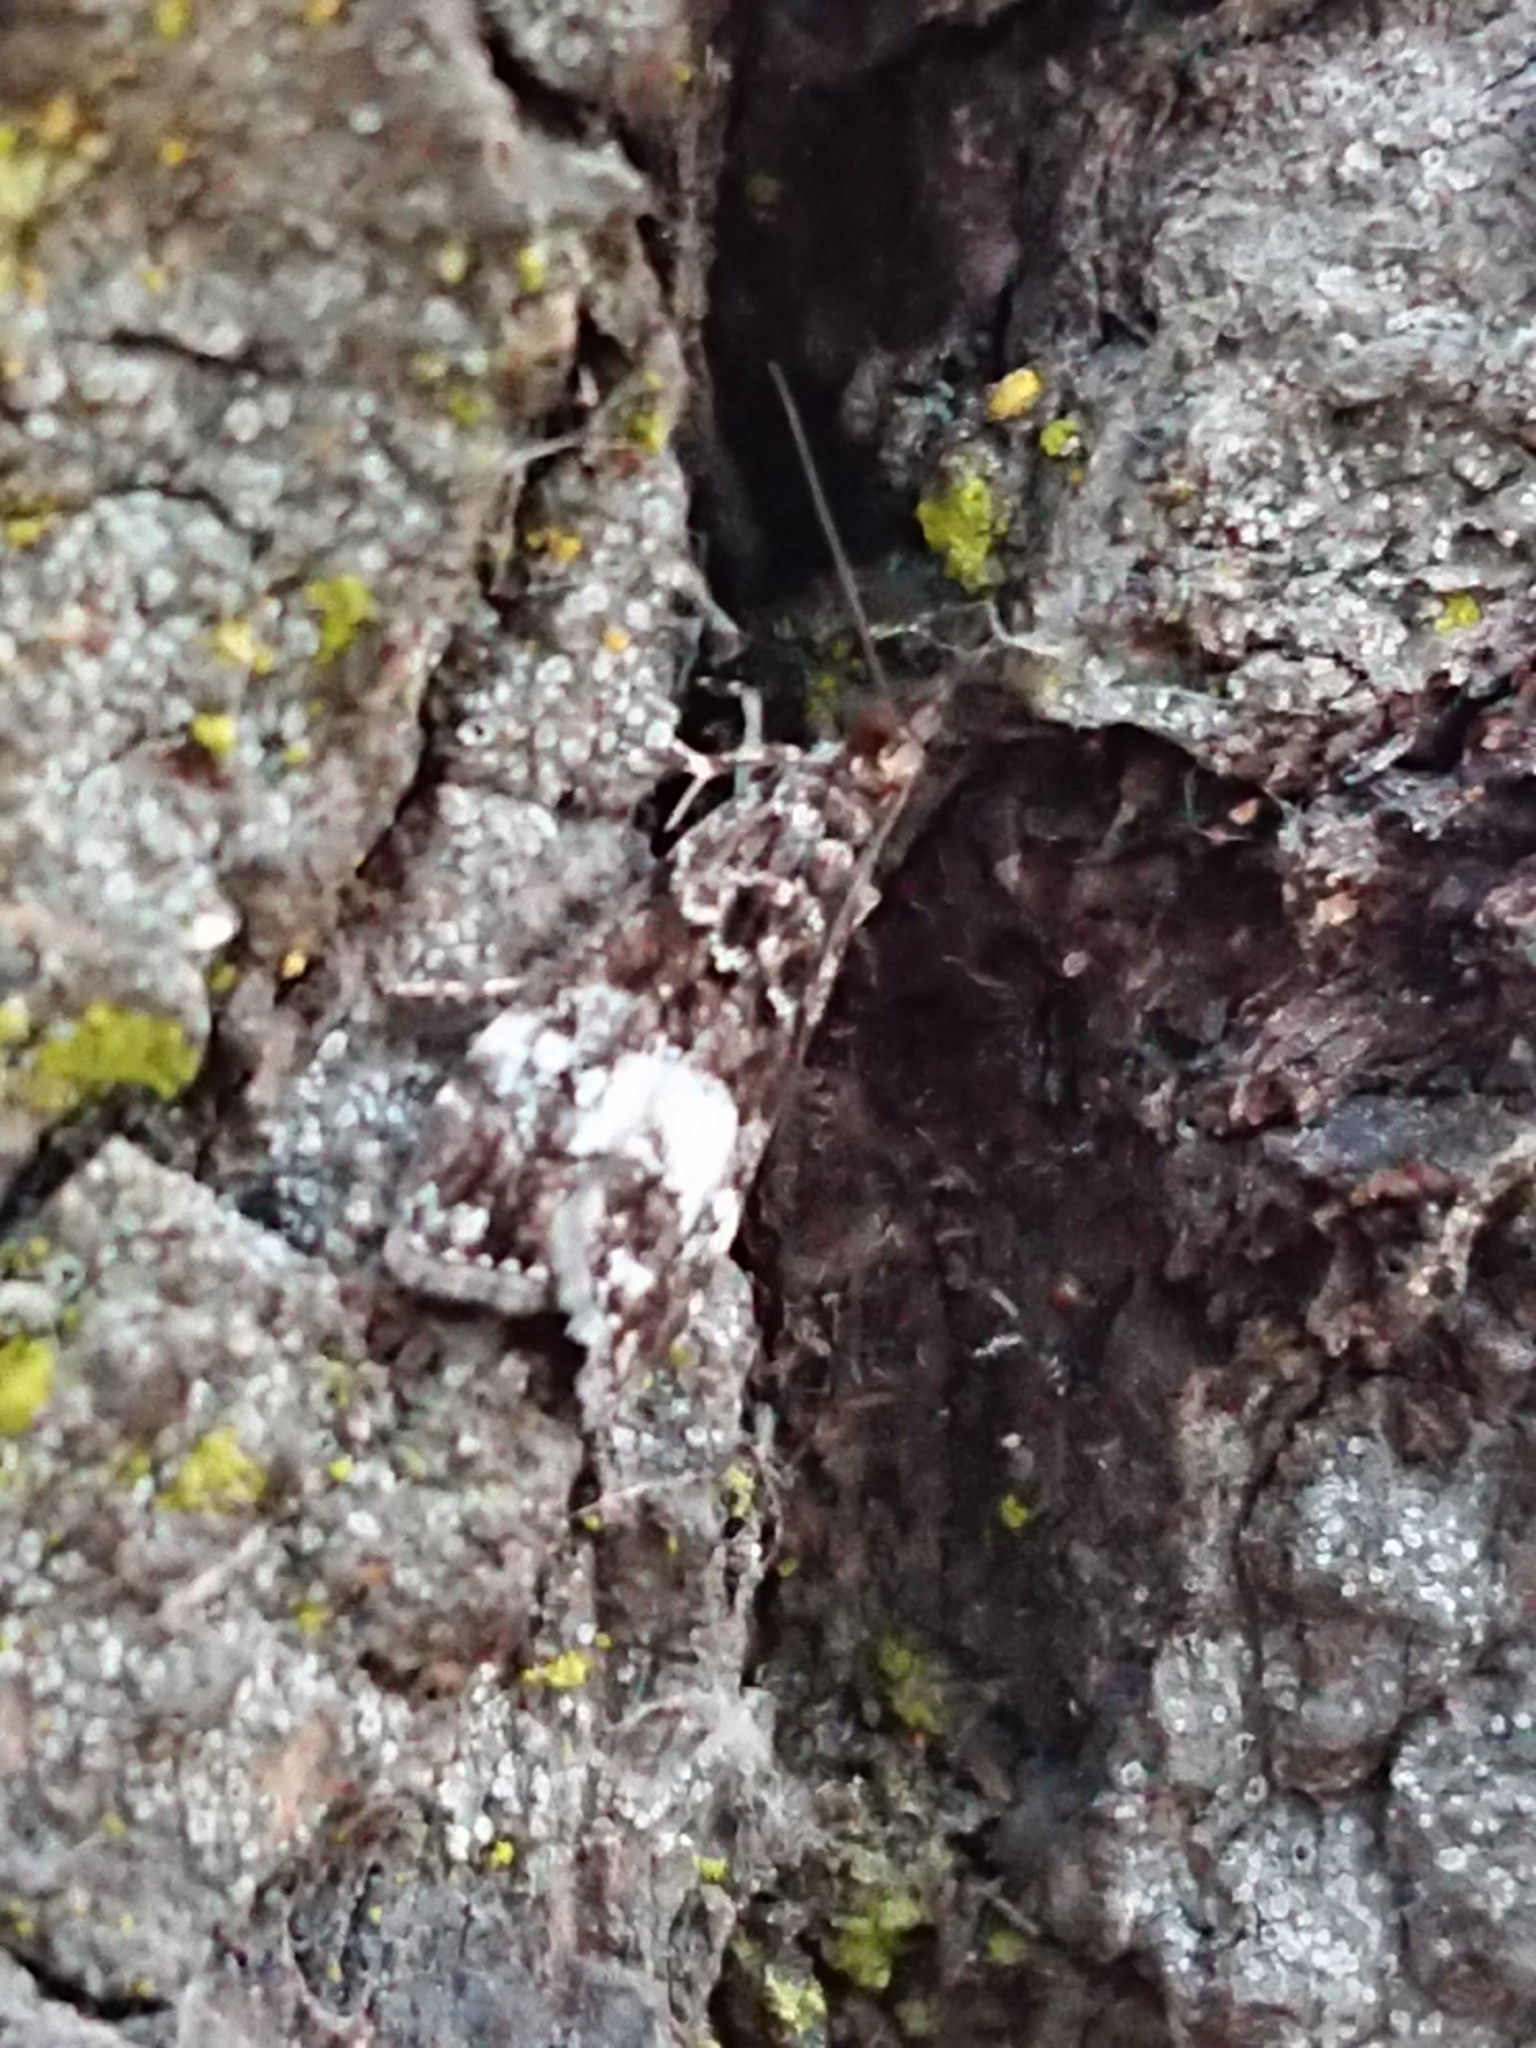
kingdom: Animalia
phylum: Arthropoda
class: Insecta
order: Lepidoptera
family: Crambidae
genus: Eudonia
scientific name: Eudonia dinodes
